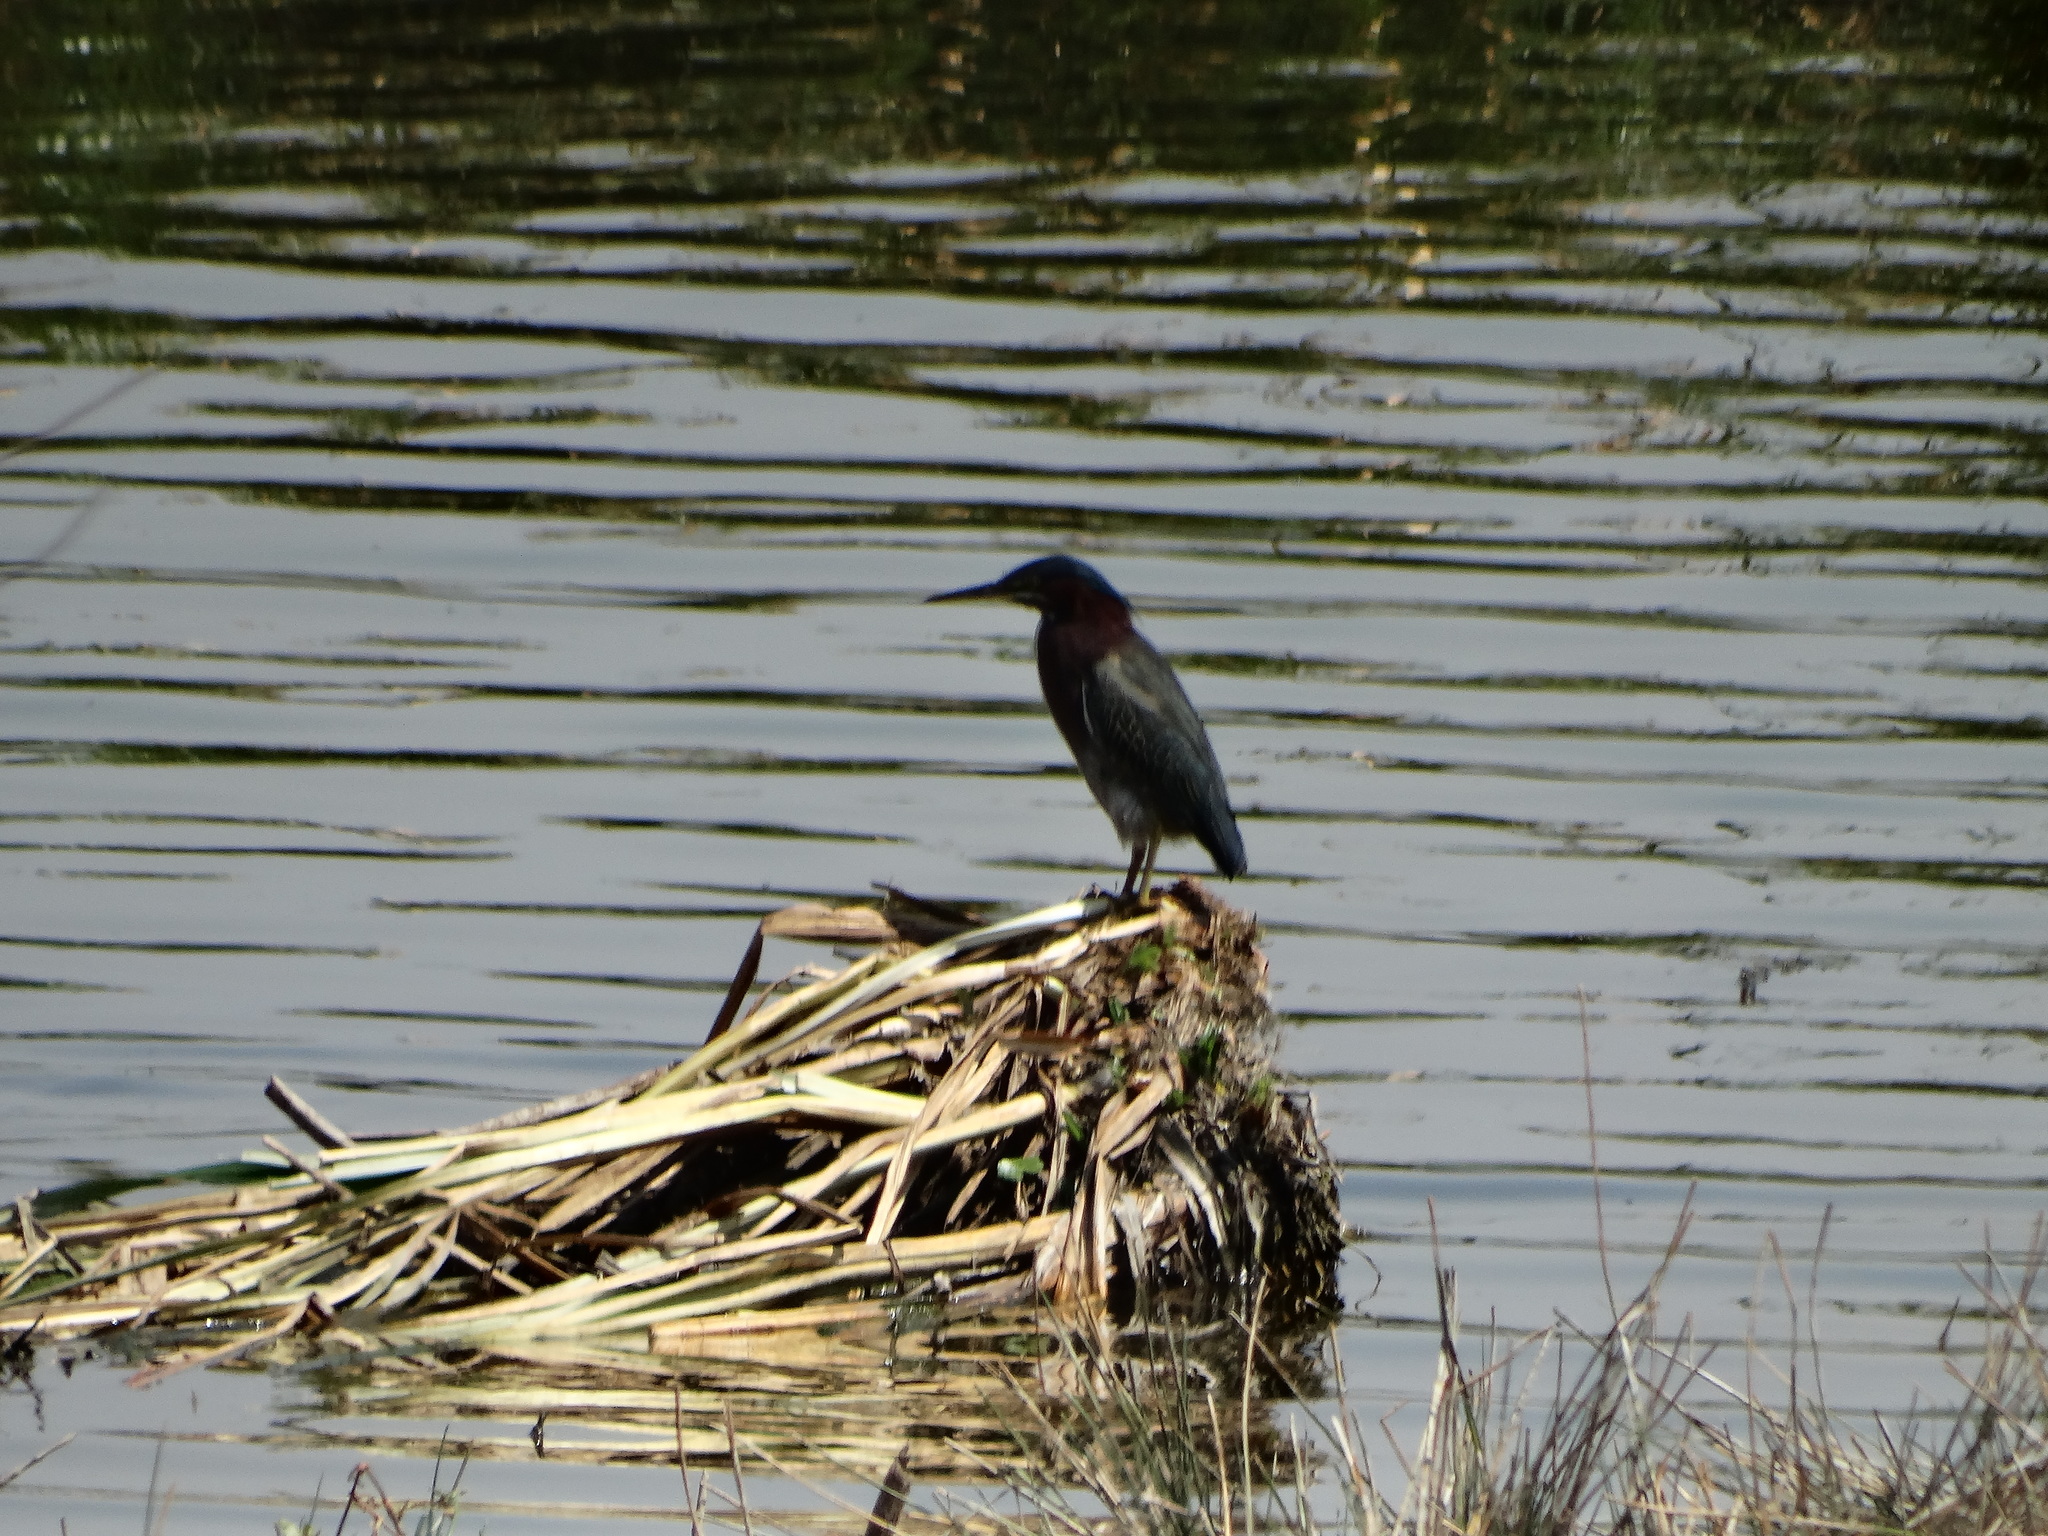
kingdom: Animalia
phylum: Chordata
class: Aves
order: Pelecaniformes
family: Ardeidae
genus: Butorides
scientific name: Butorides virescens
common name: Green heron
